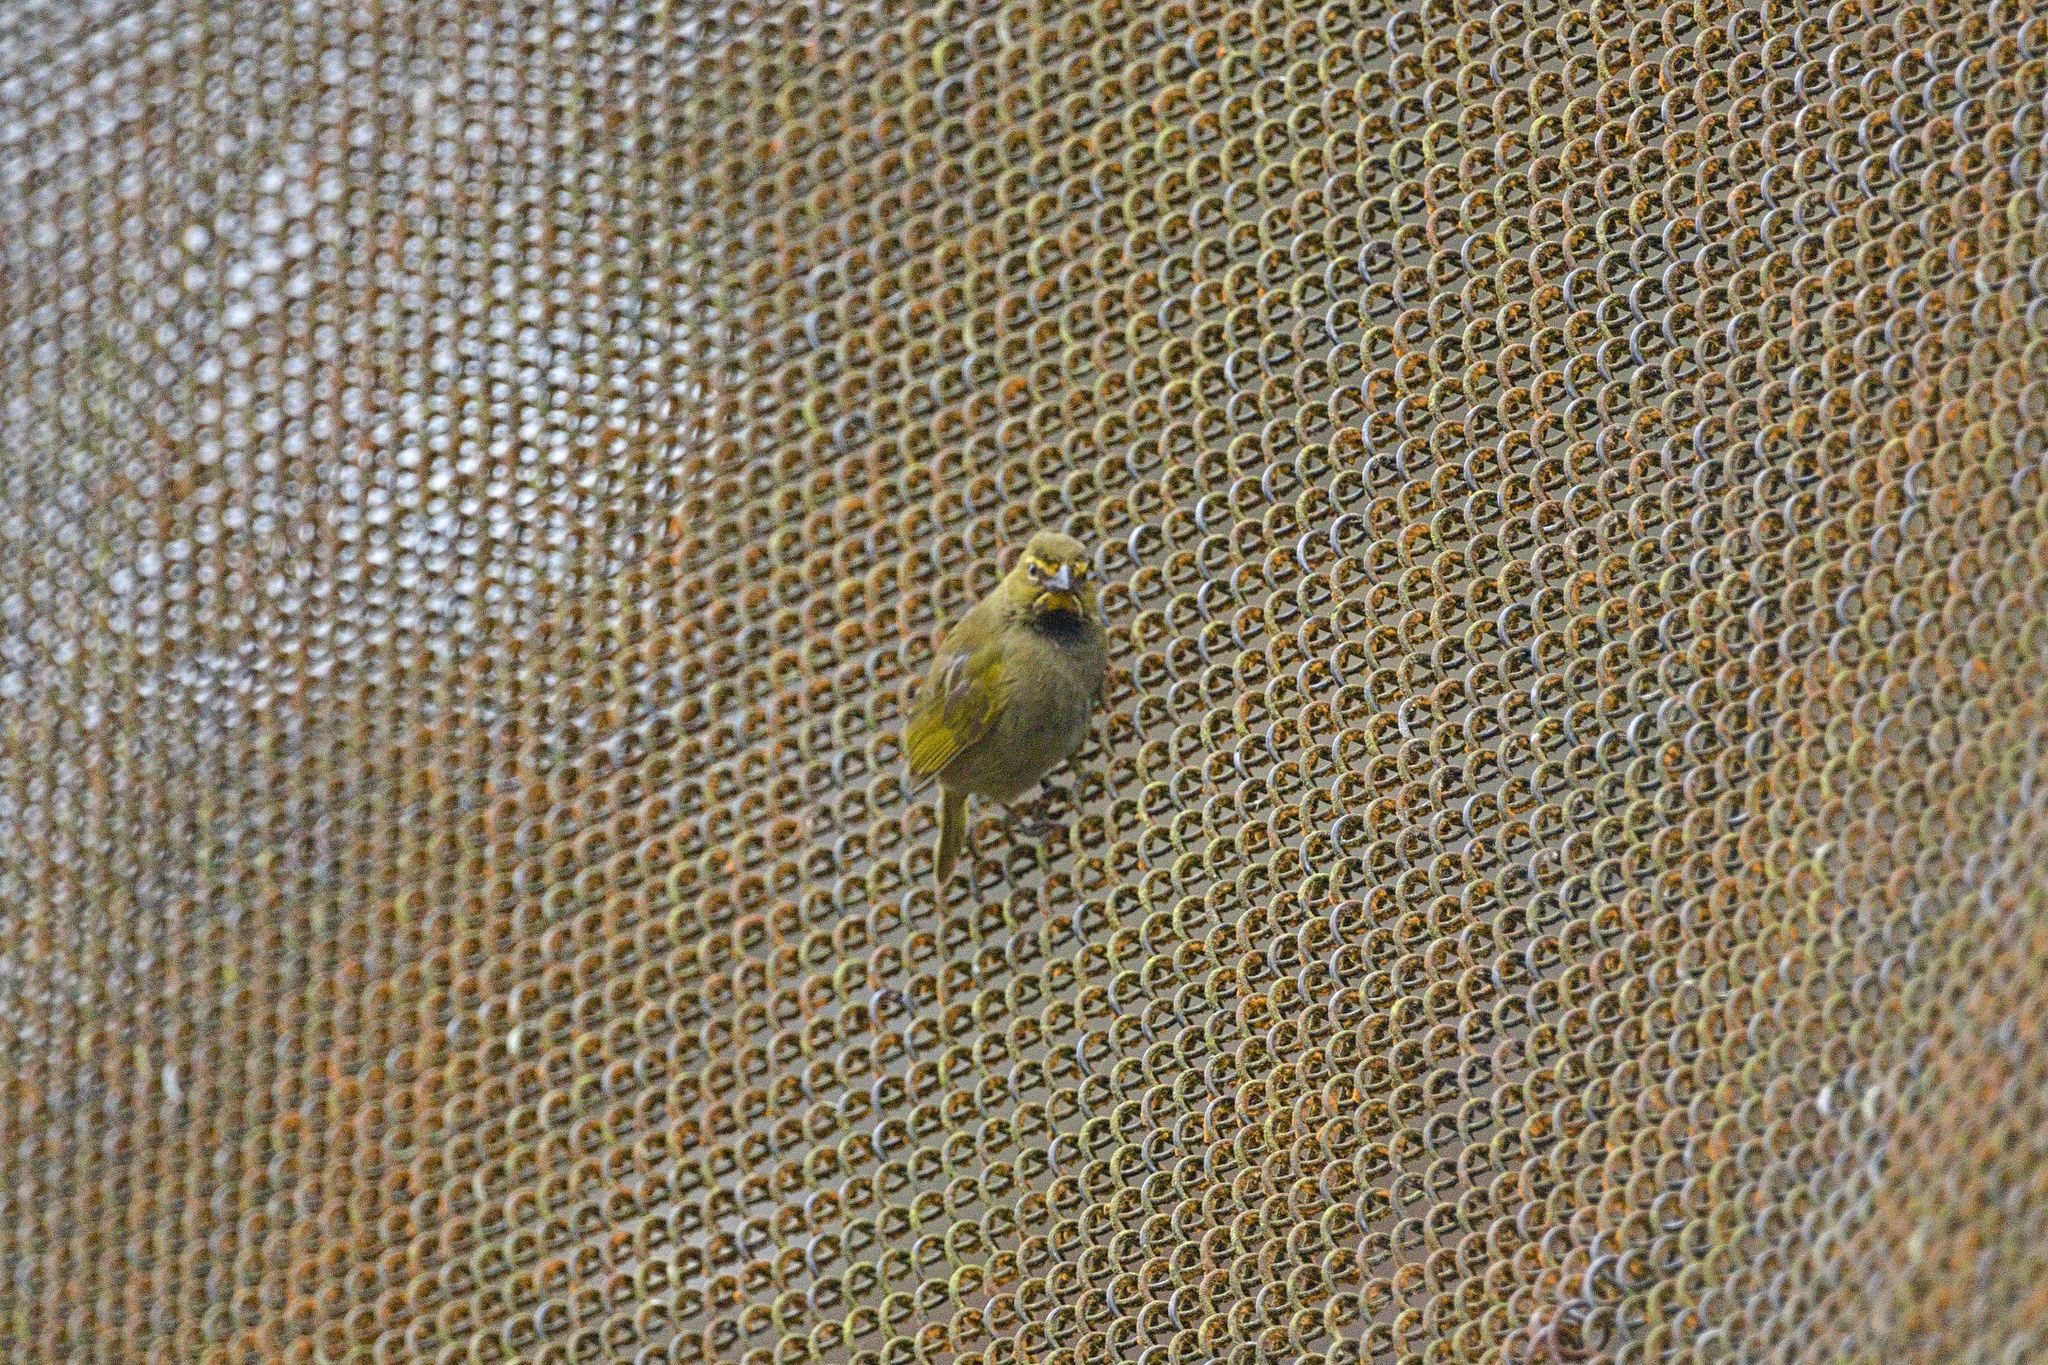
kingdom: Animalia
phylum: Chordata
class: Aves
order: Passeriformes
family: Thraupidae
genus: Tiaris
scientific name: Tiaris olivaceus
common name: Yellow-faced grassquit
